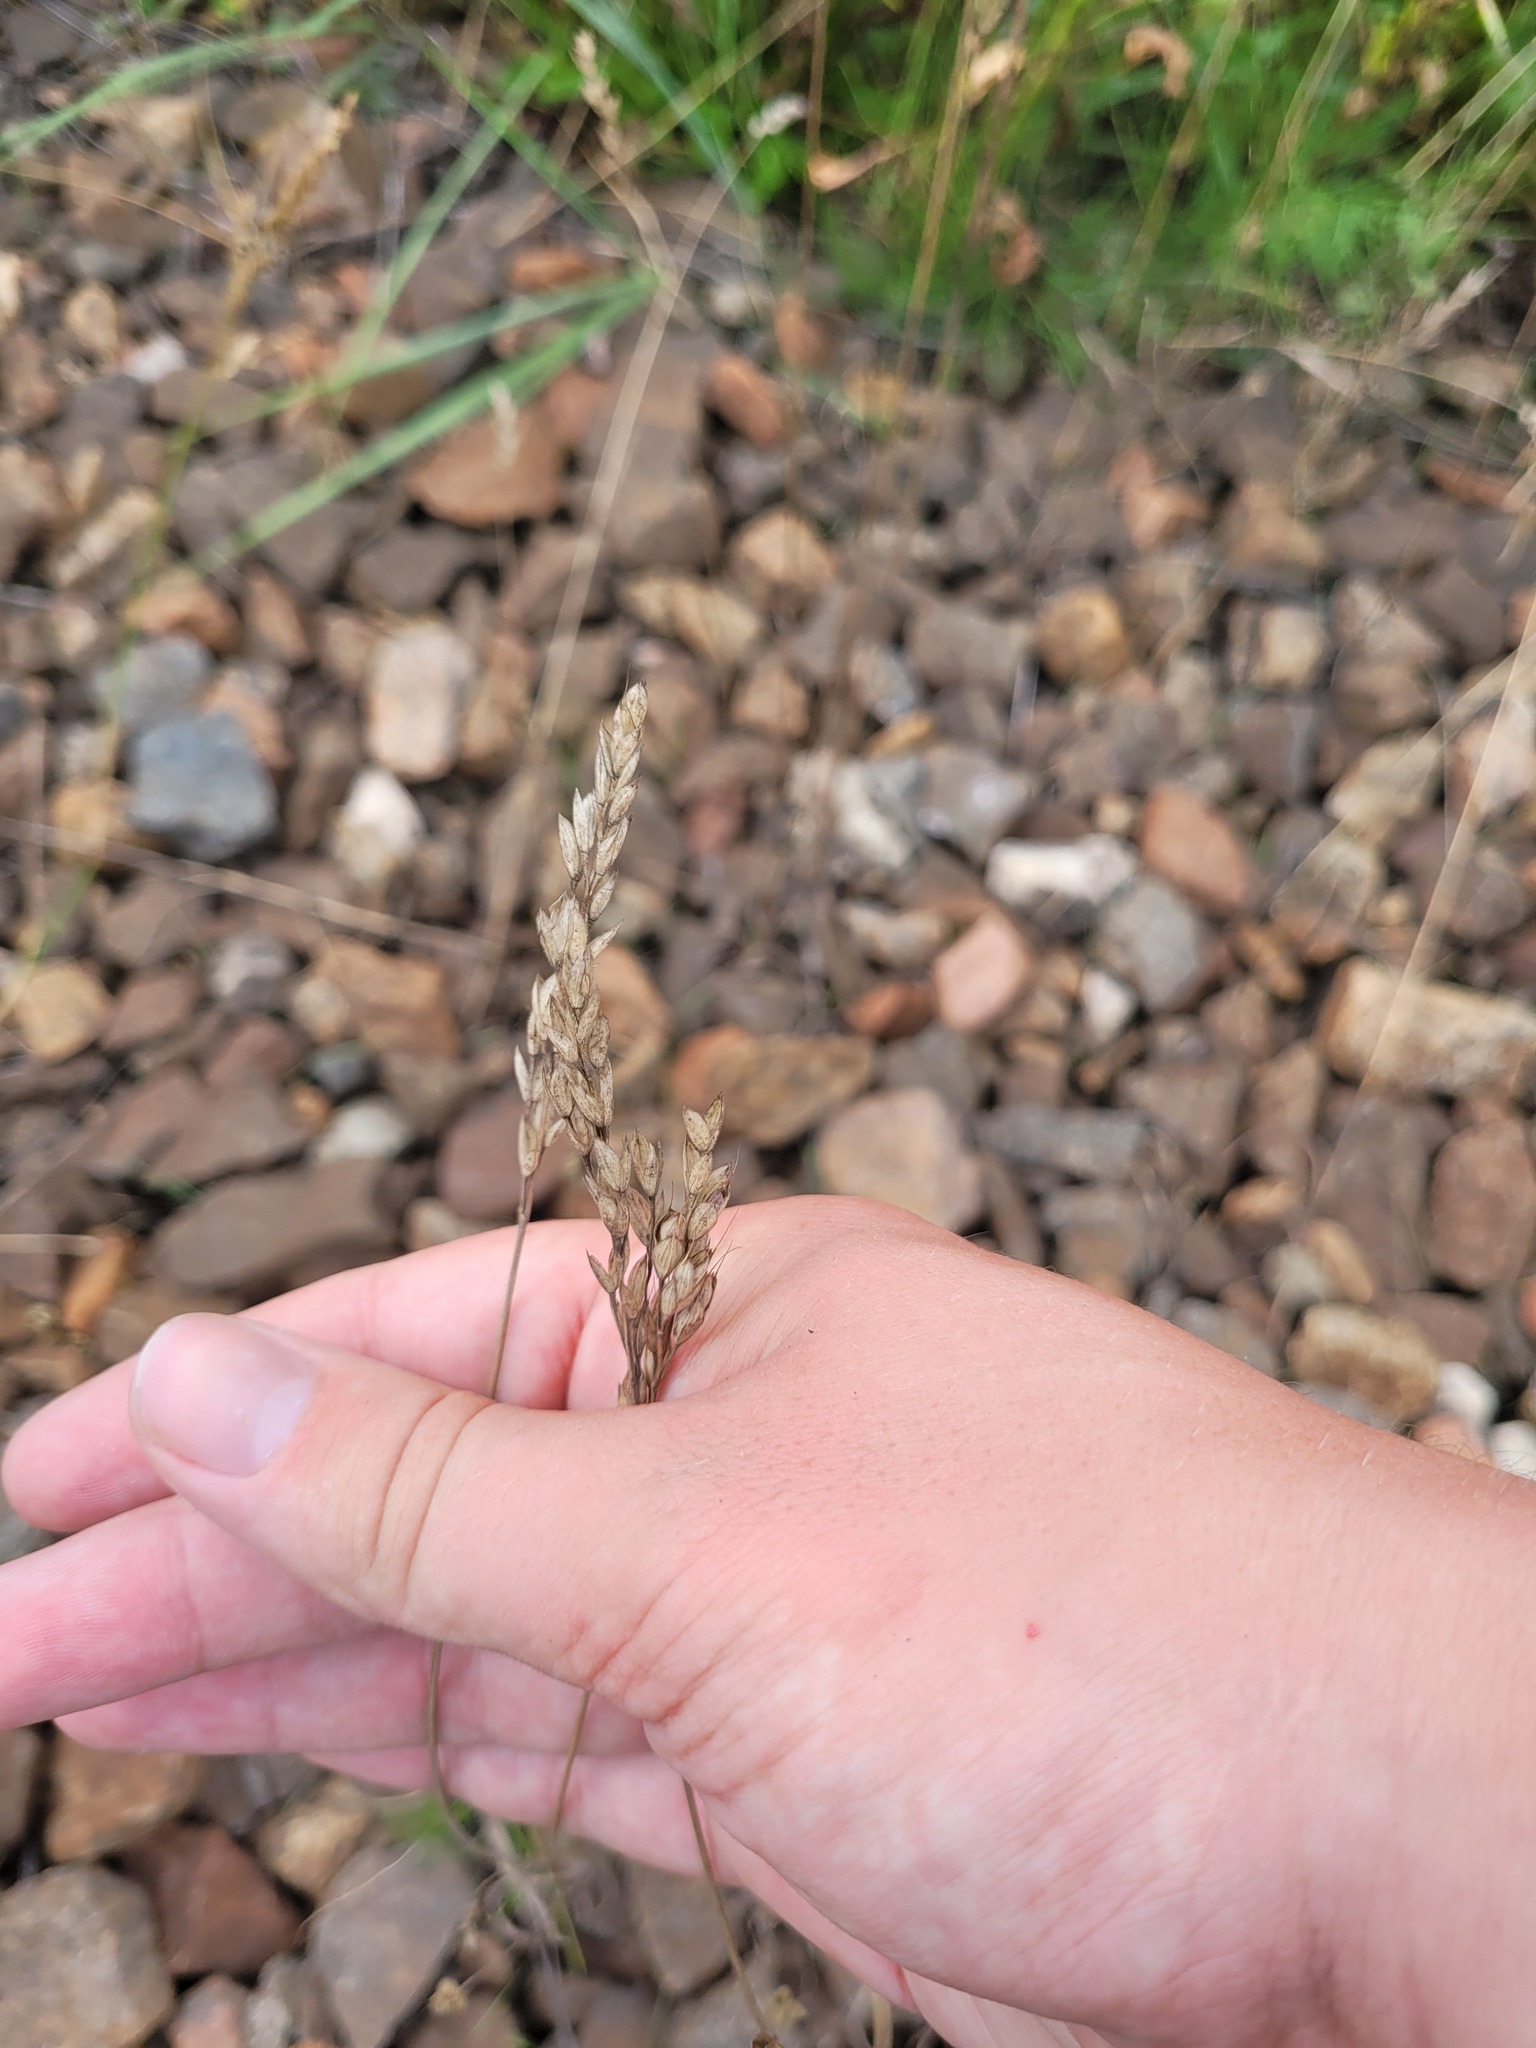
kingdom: Plantae
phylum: Tracheophyta
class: Liliopsida
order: Poales
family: Poaceae
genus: Bromus
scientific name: Bromus hordeaceus
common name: Soft brome
